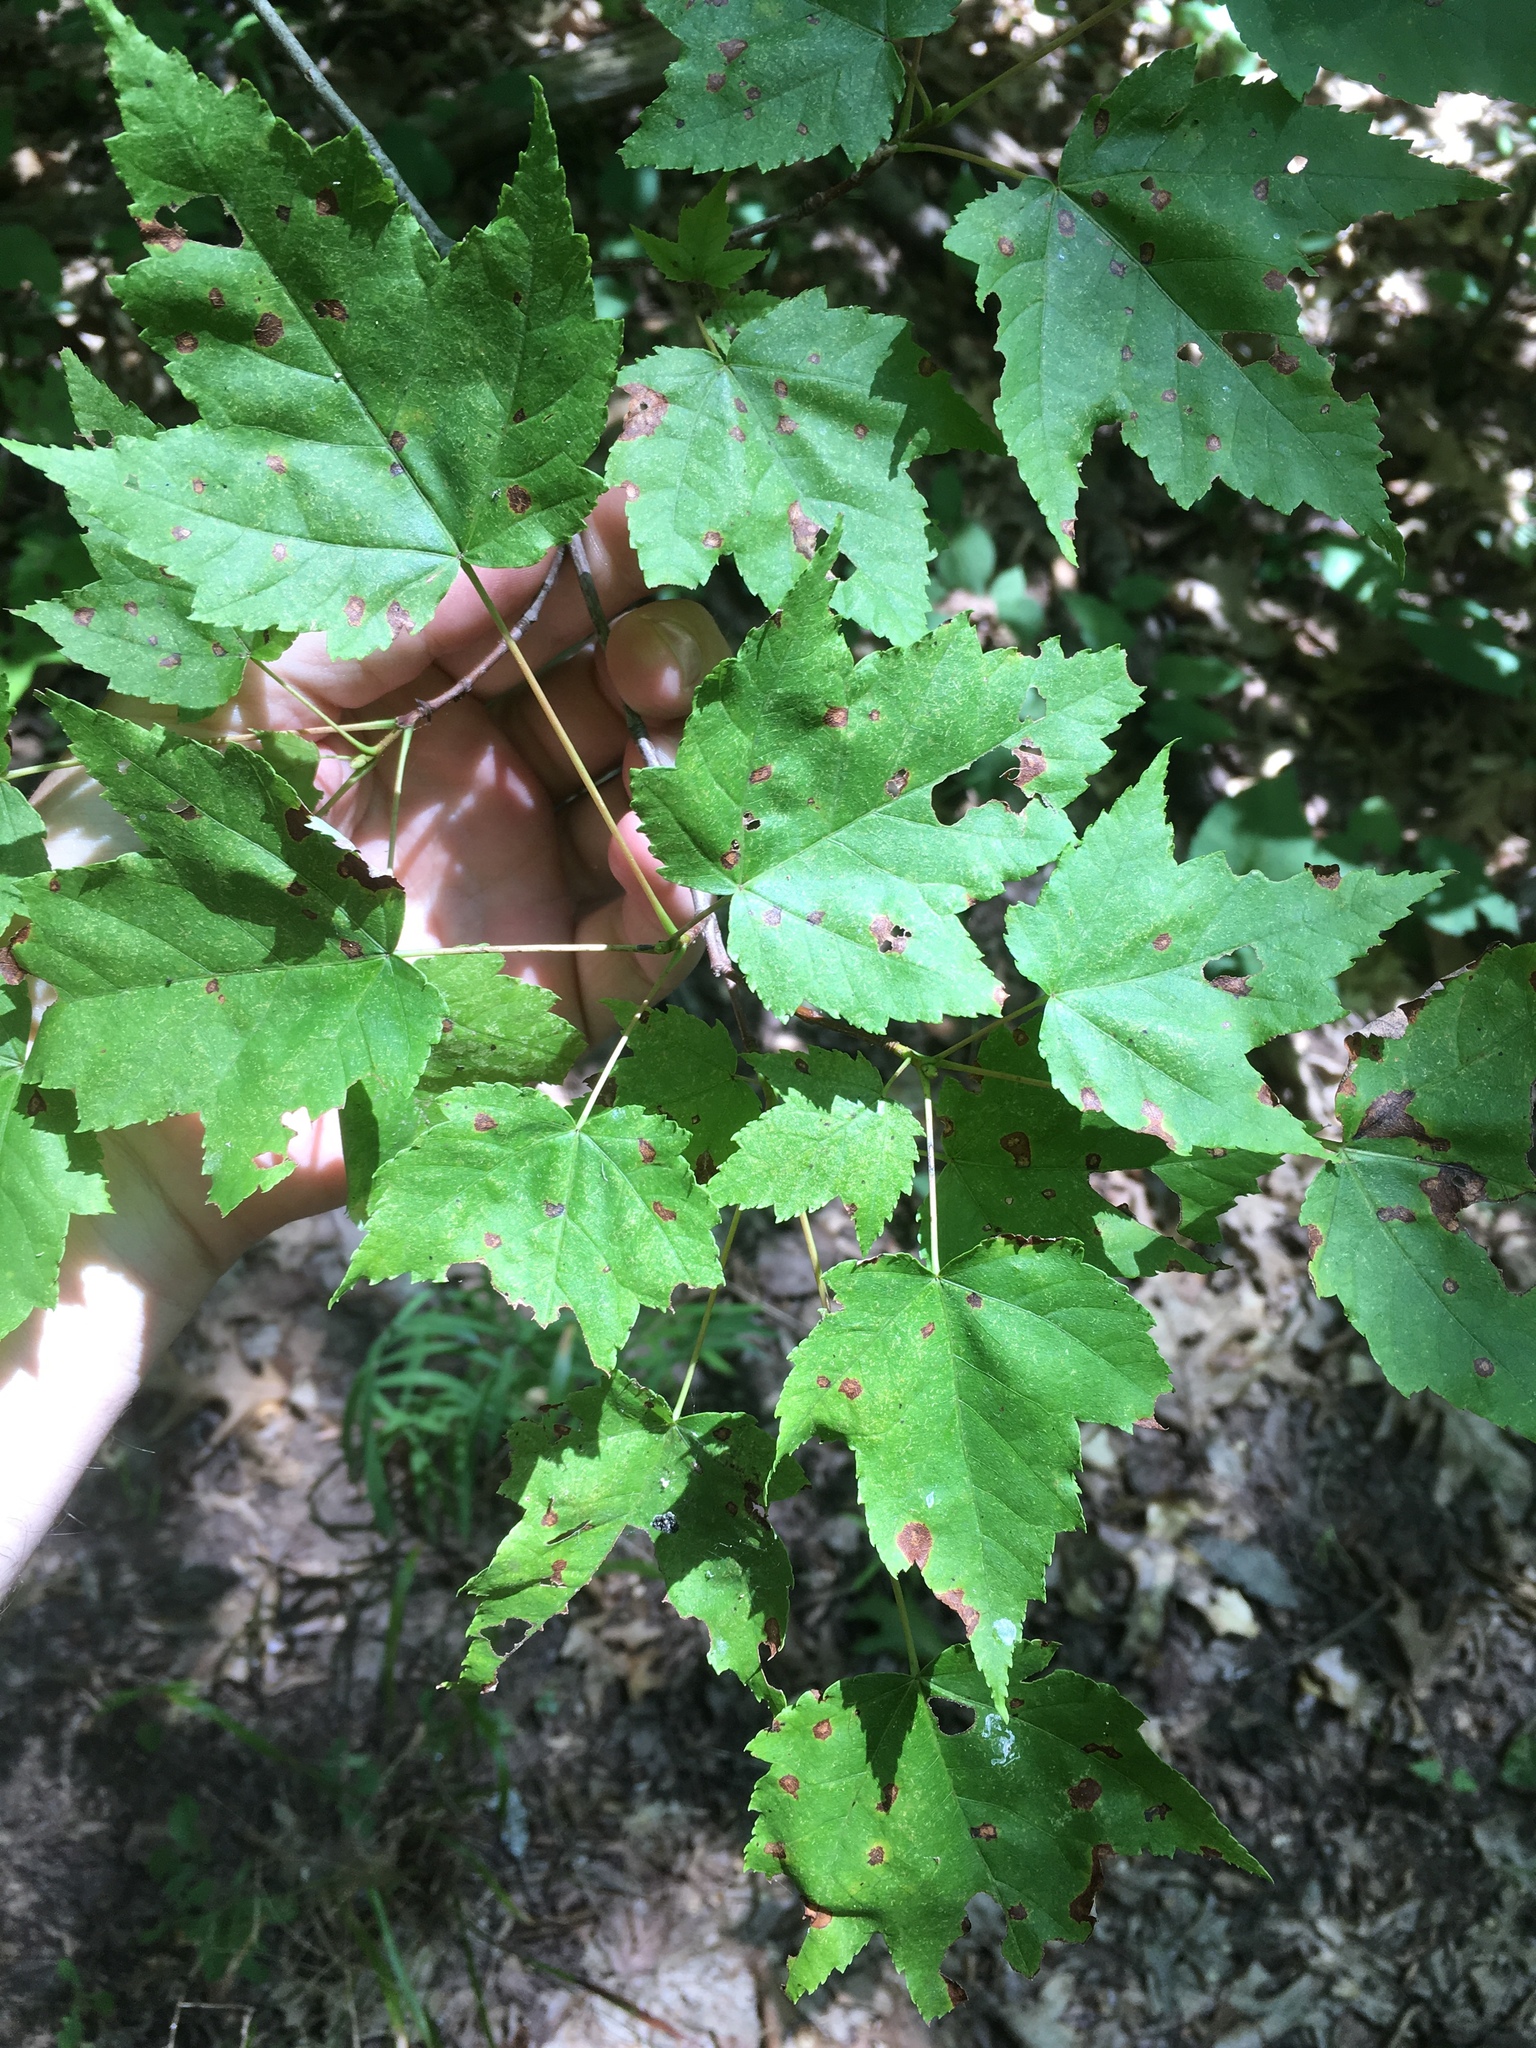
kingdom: Plantae
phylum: Tracheophyta
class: Magnoliopsida
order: Sapindales
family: Sapindaceae
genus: Acer
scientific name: Acer rubrum
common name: Red maple
